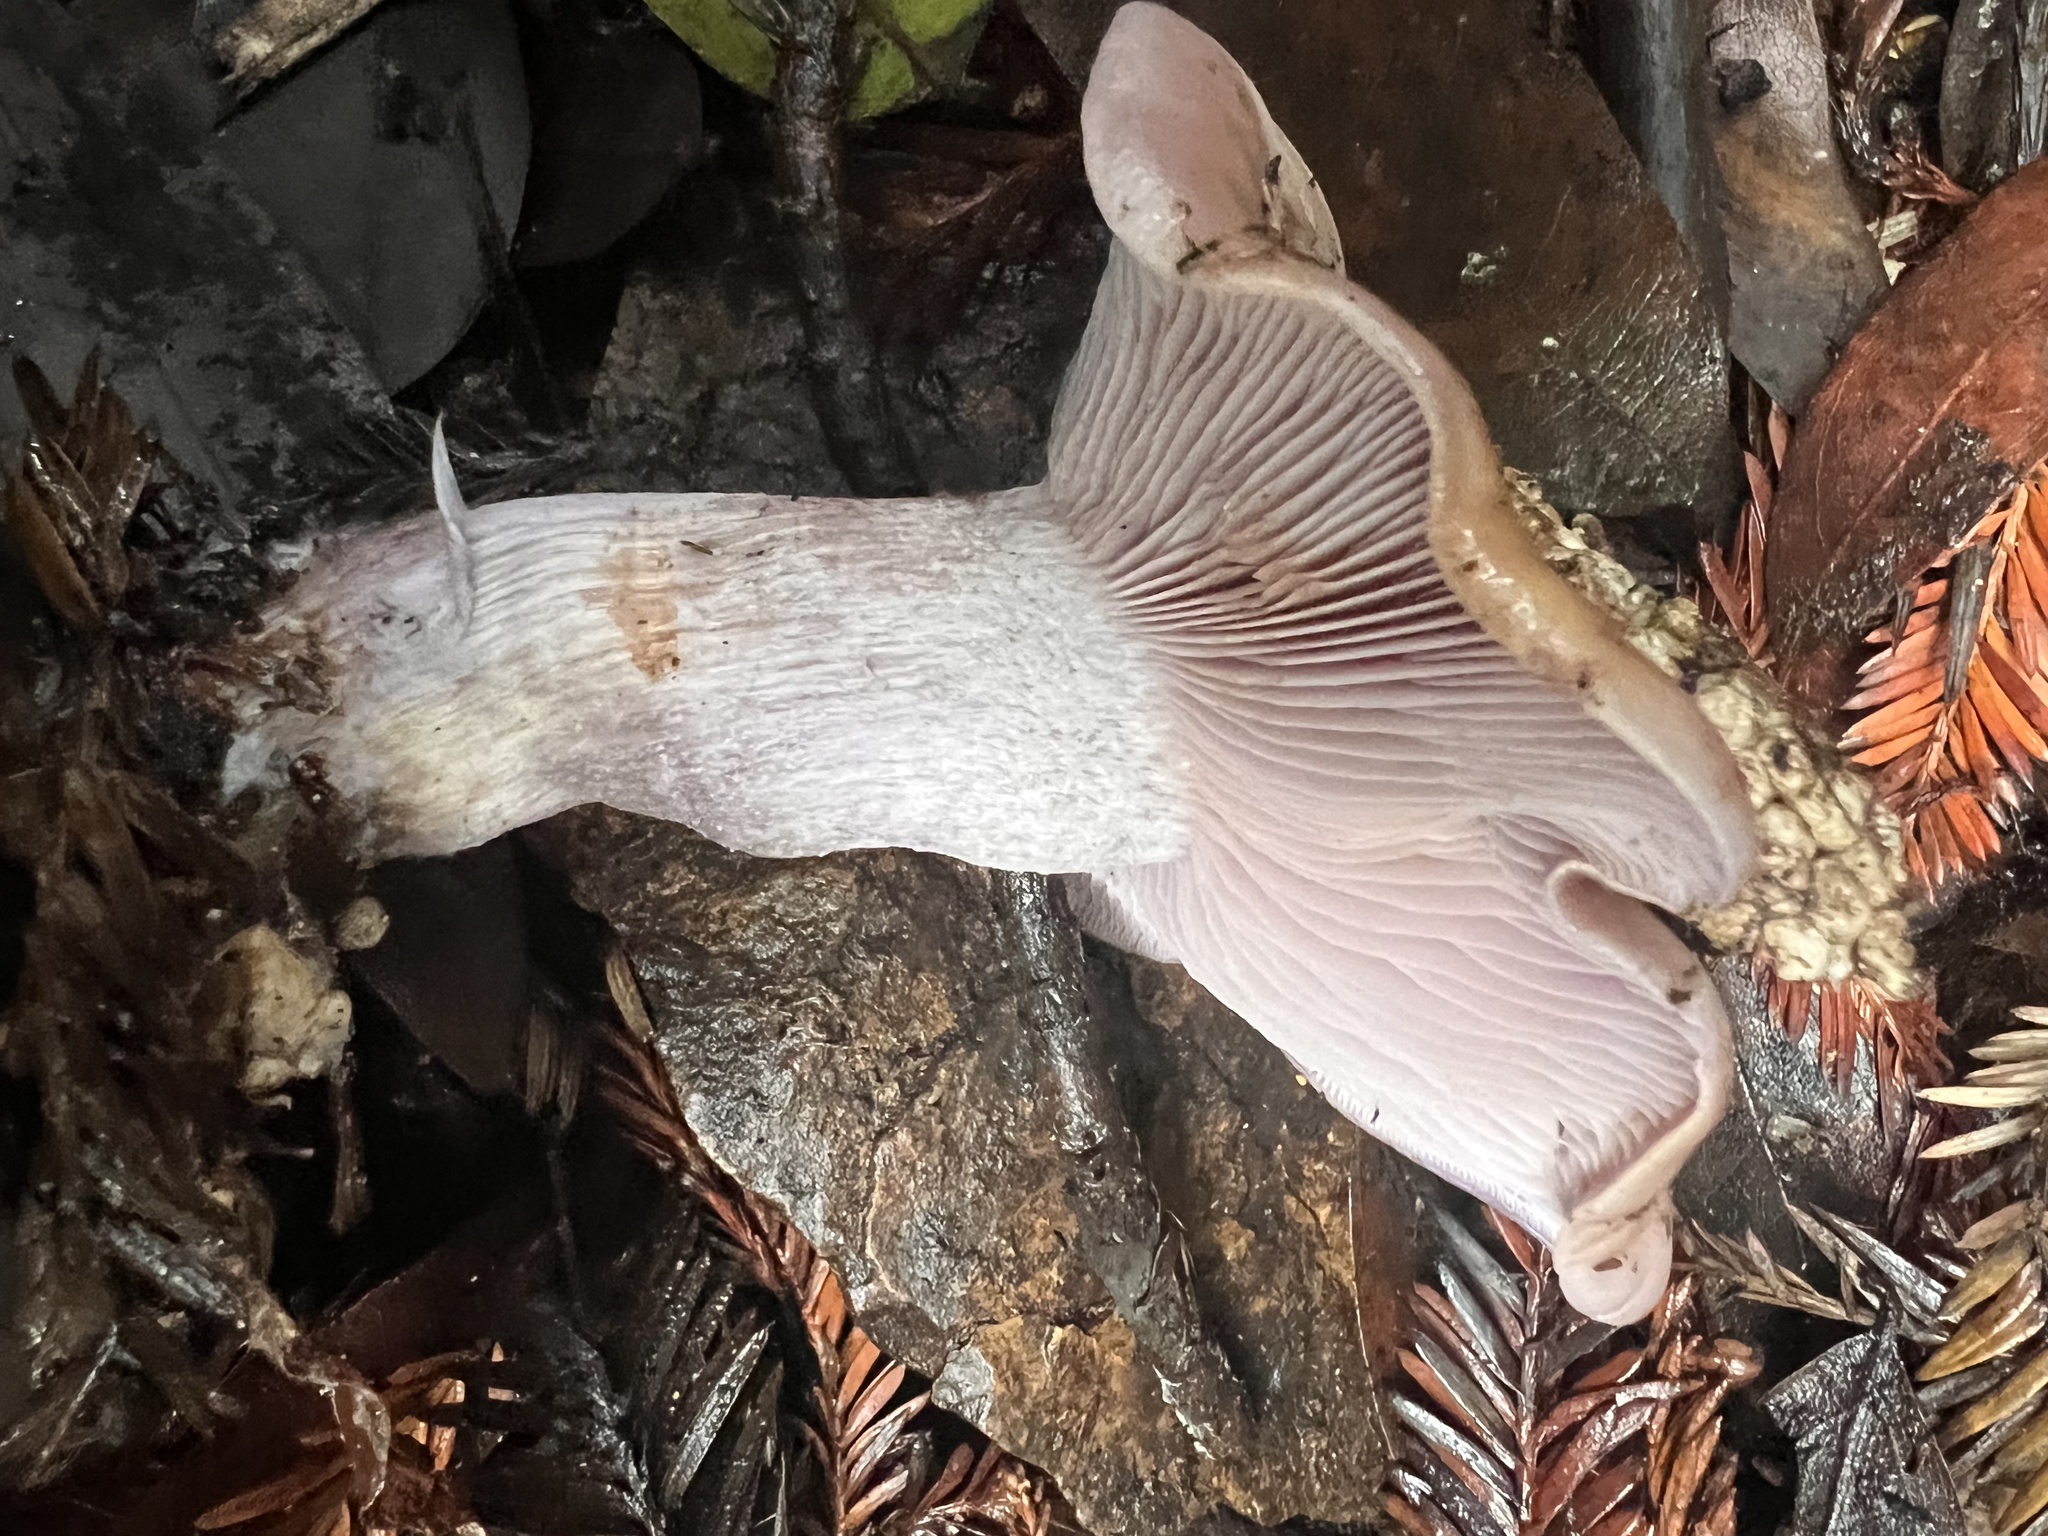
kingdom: Fungi
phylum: Basidiomycota
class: Agaricomycetes
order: Agaricales
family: Tricholomataceae
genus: Collybia
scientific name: Collybia
